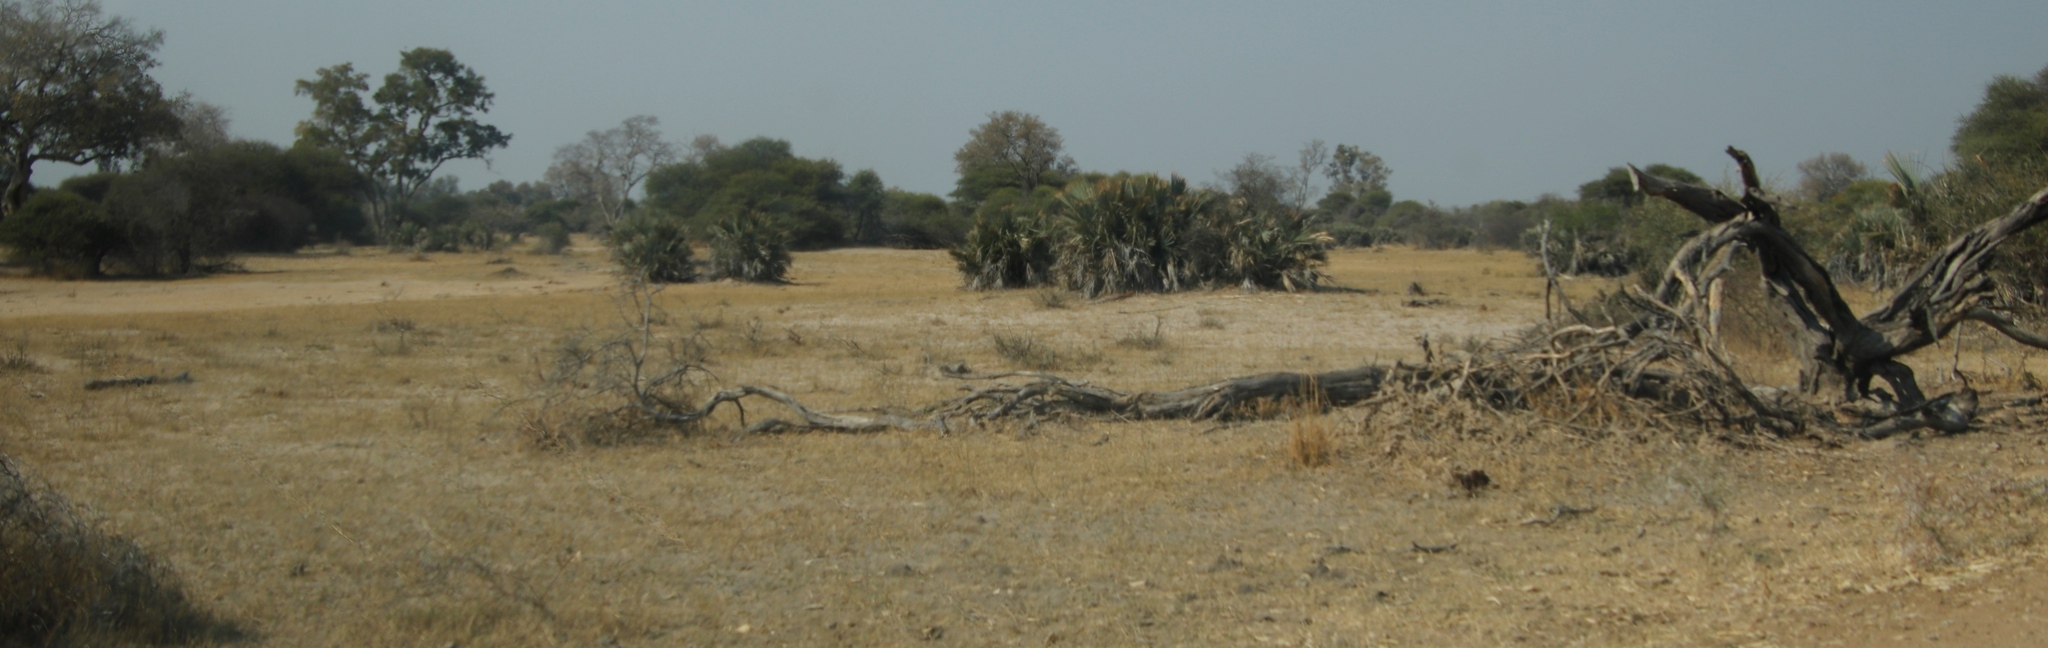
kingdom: Plantae
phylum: Tracheophyta
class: Liliopsida
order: Arecales
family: Arecaceae
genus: Hyphaene
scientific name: Hyphaene petersiana
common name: African ivory nut palm
